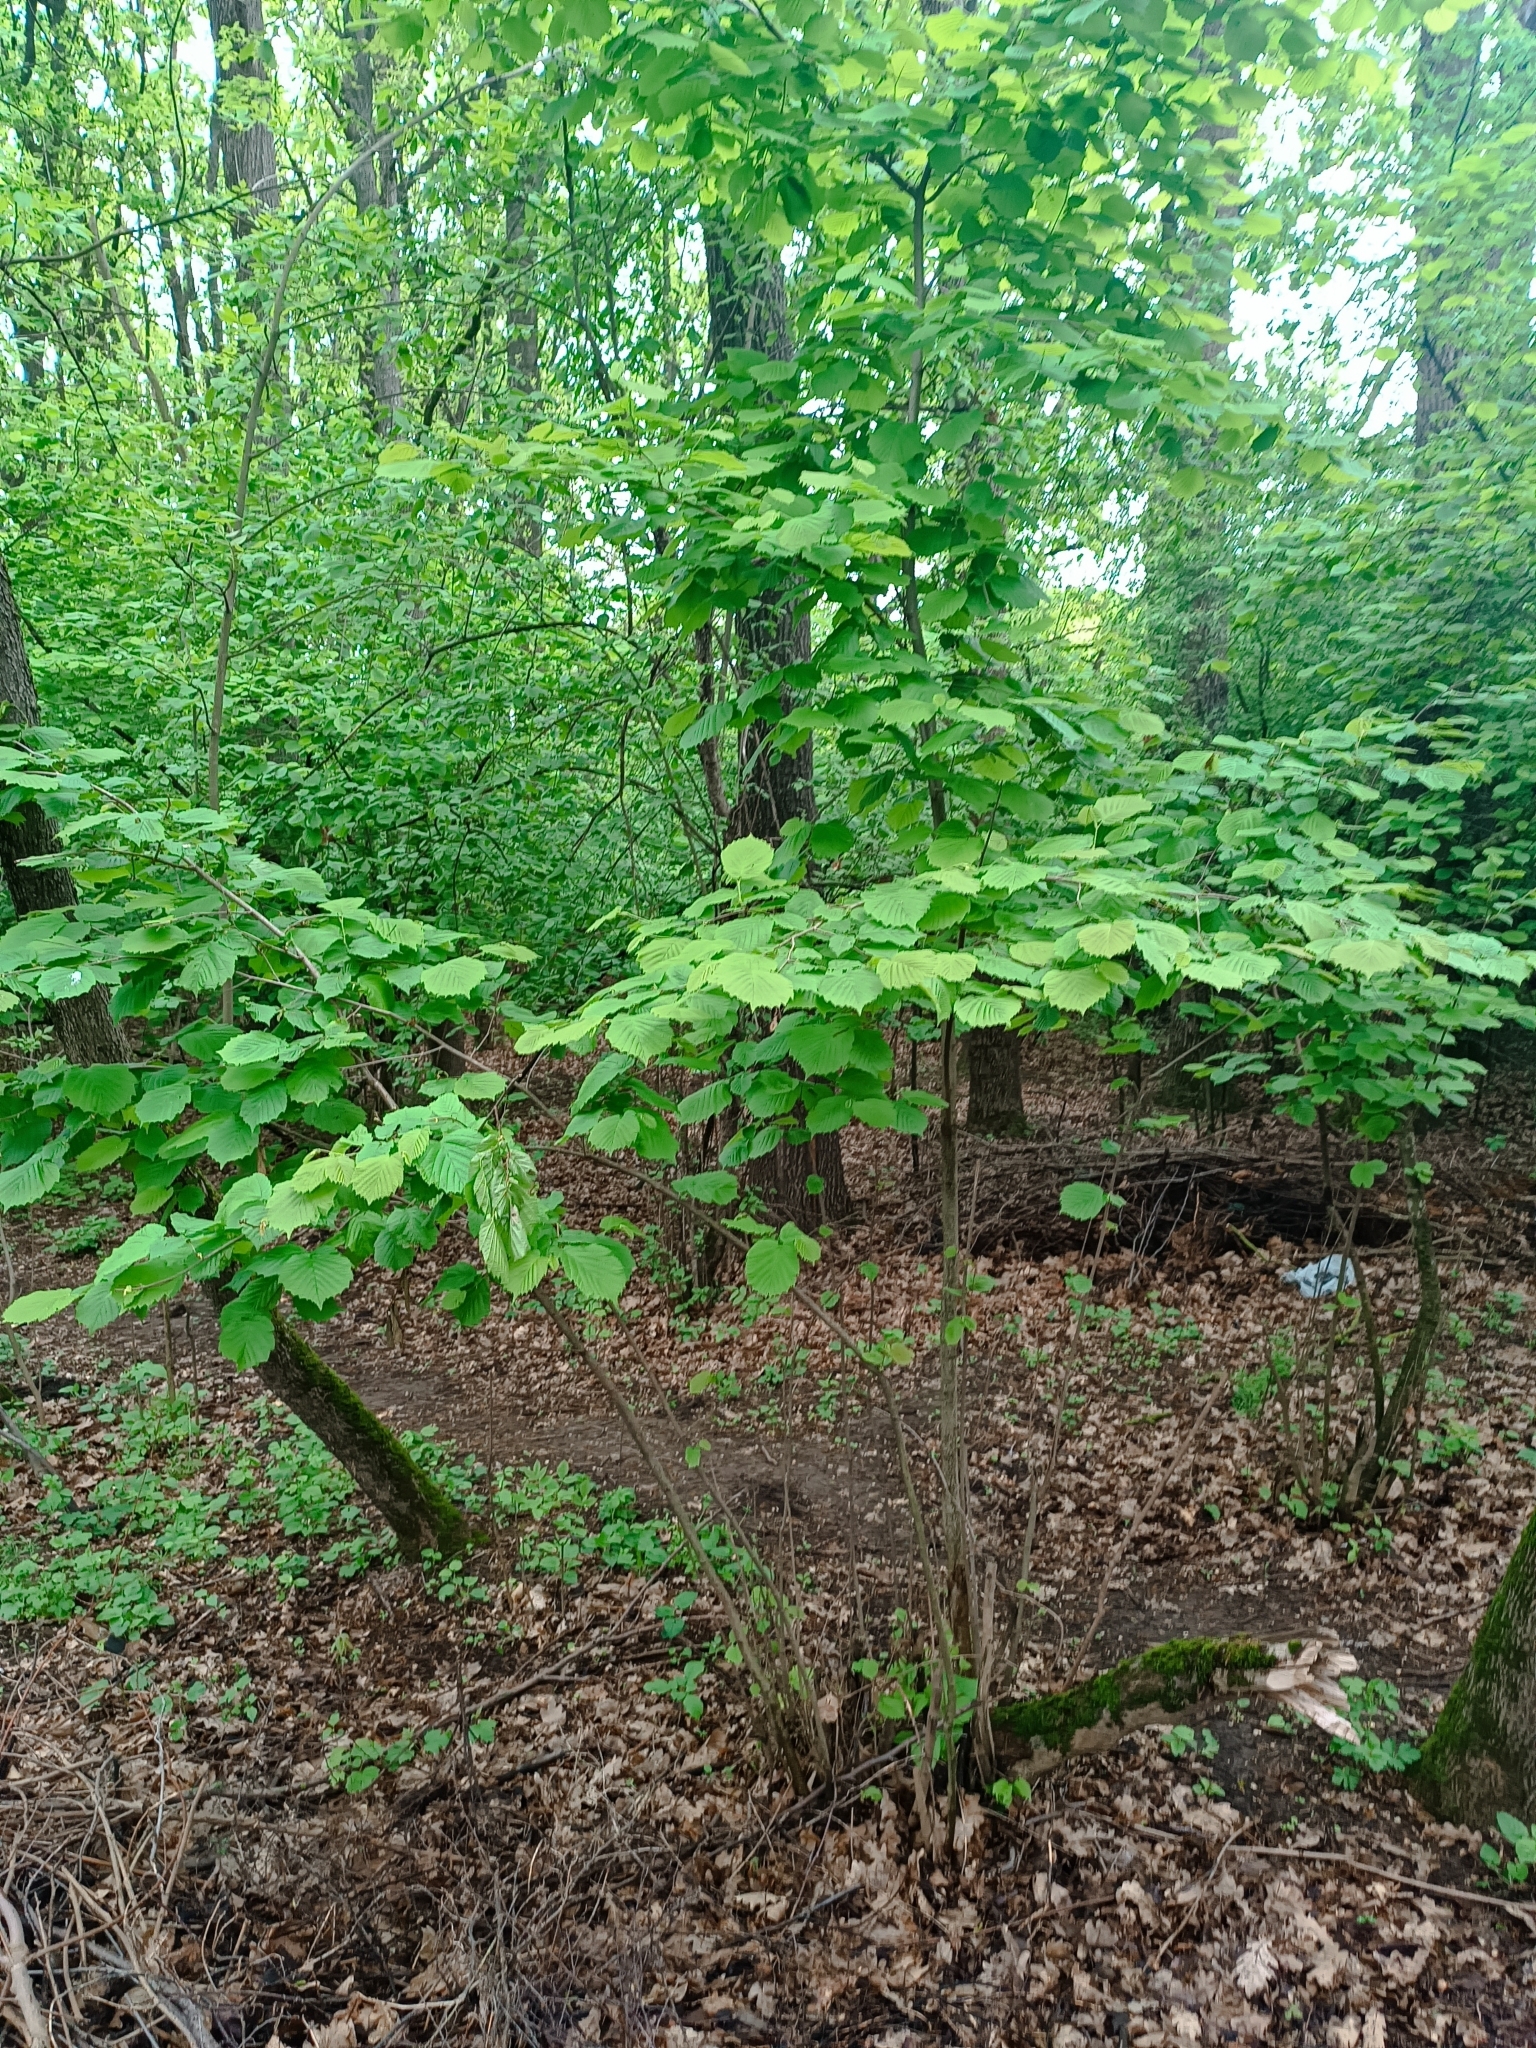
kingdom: Plantae
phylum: Tracheophyta
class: Magnoliopsida
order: Fagales
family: Betulaceae
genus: Corylus
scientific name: Corylus avellana
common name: European hazel
